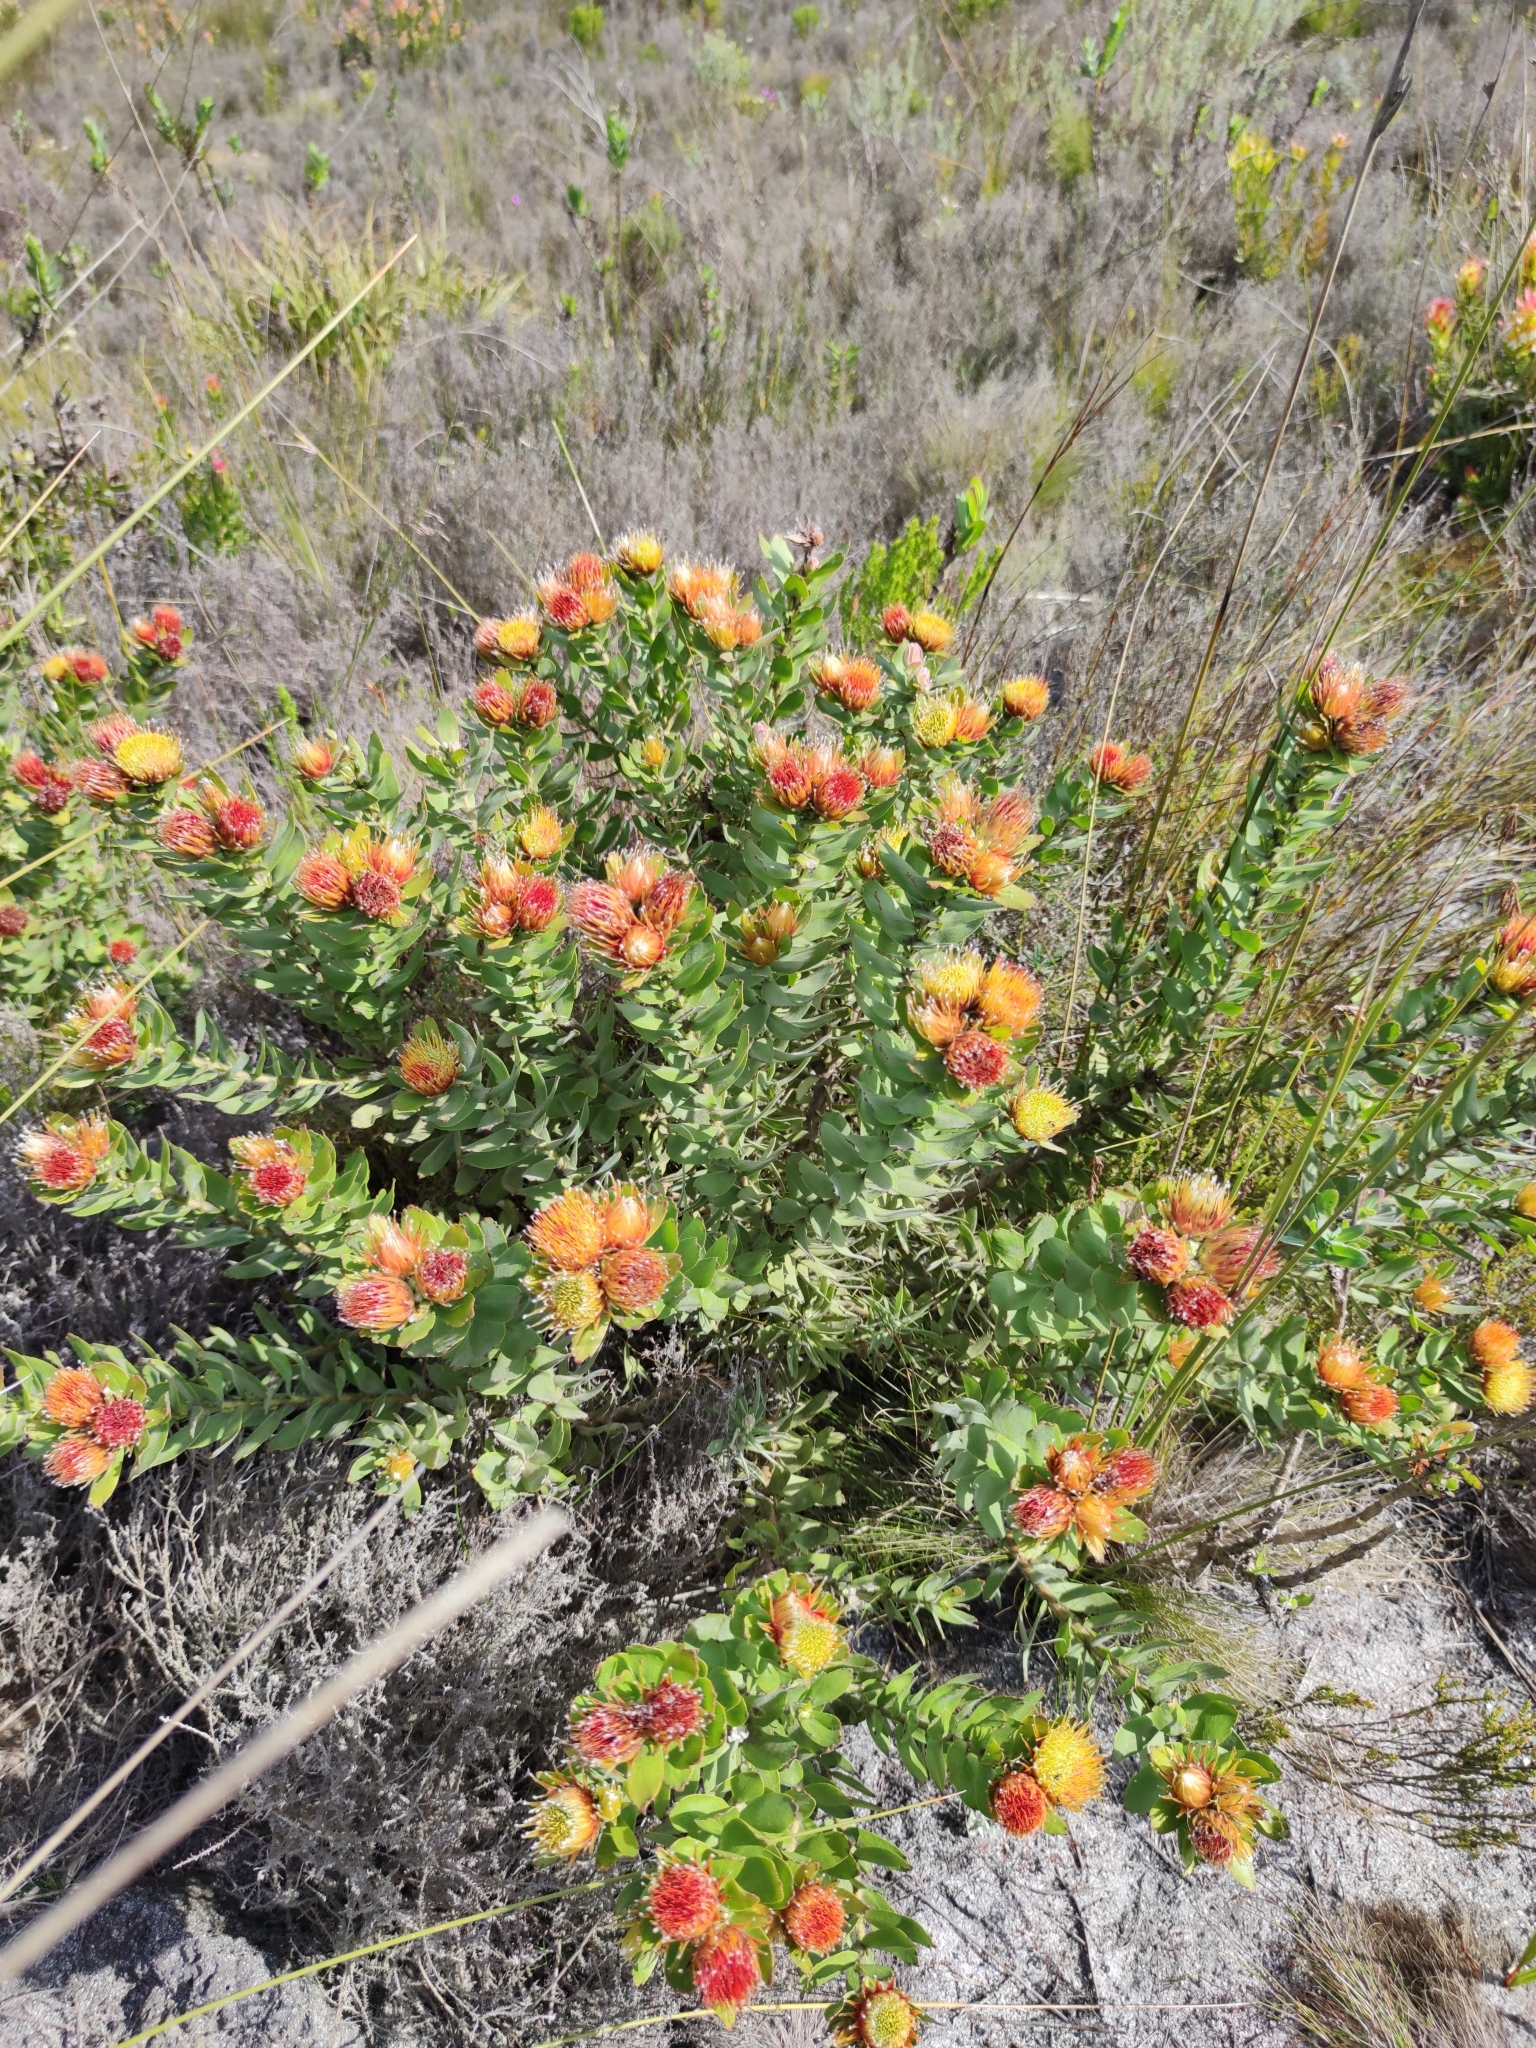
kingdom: Plantae
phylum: Tracheophyta
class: Magnoliopsida
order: Proteales
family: Proteaceae
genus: Leucospermum
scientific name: Leucospermum oleifolium
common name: Matches
